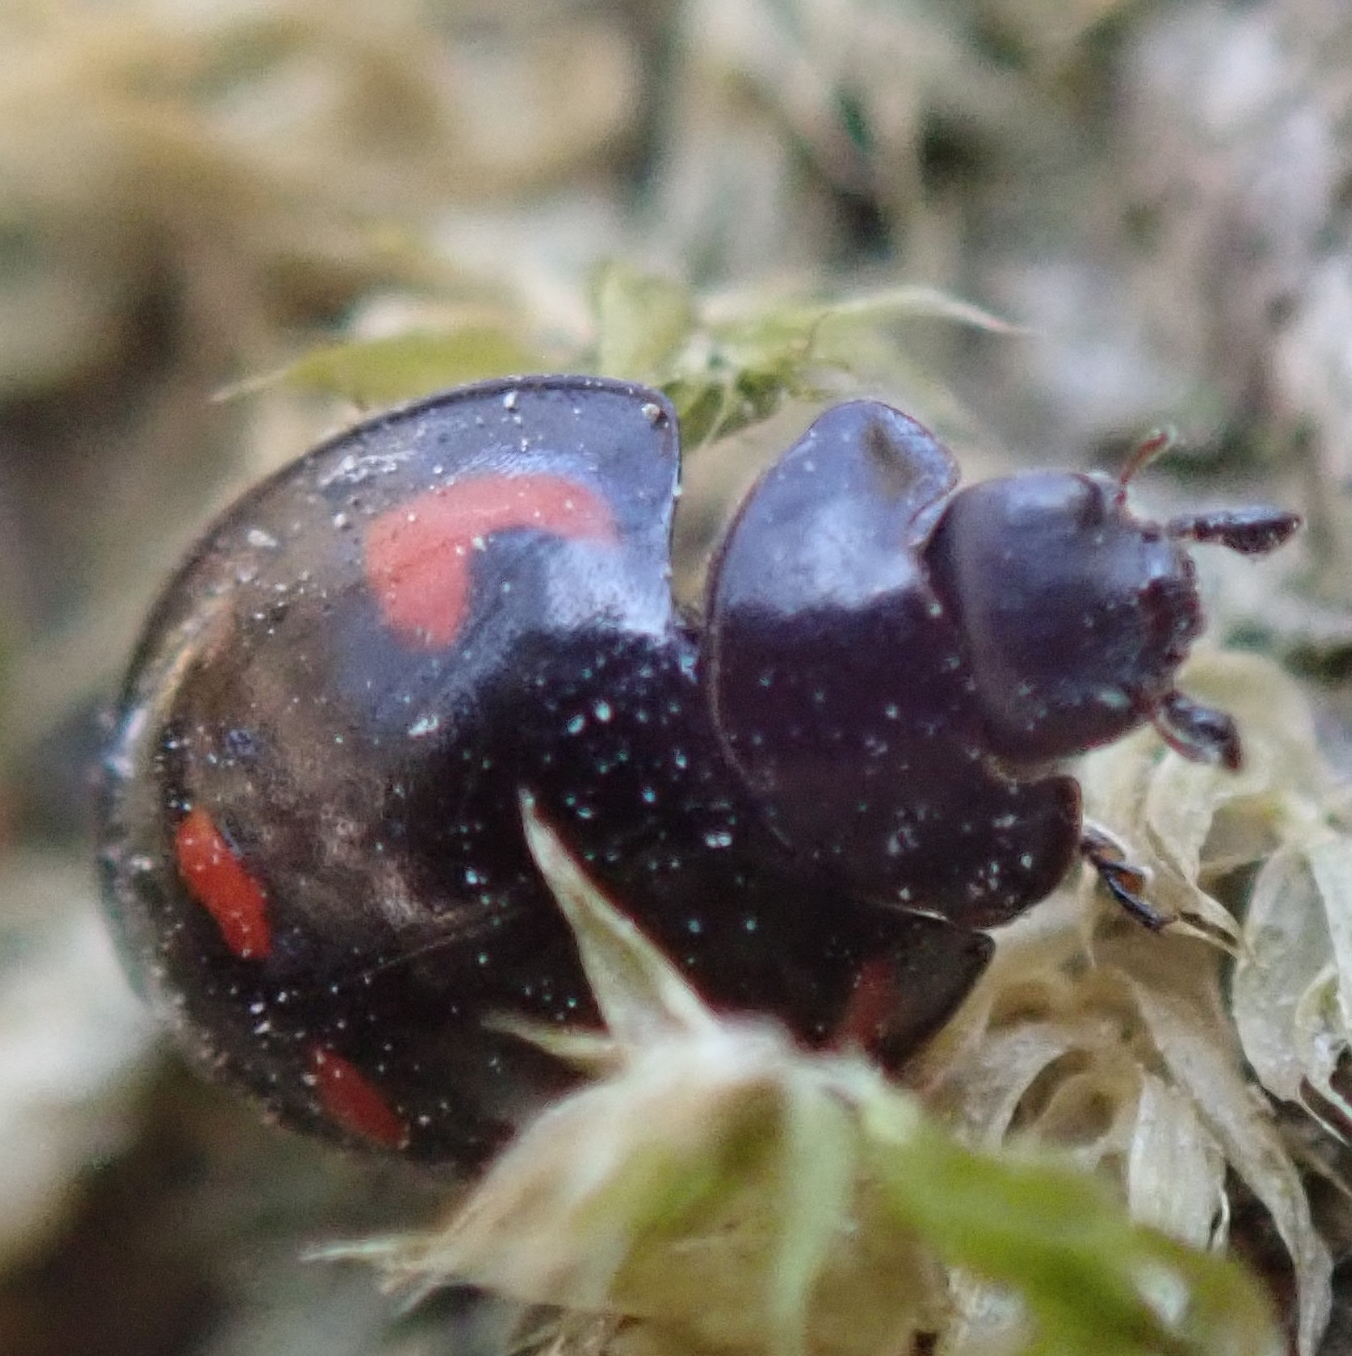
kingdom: Animalia
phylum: Arthropoda
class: Insecta
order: Coleoptera
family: Coccinellidae
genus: Brumus
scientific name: Brumus quadripustulatus
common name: Ladybird beetle
